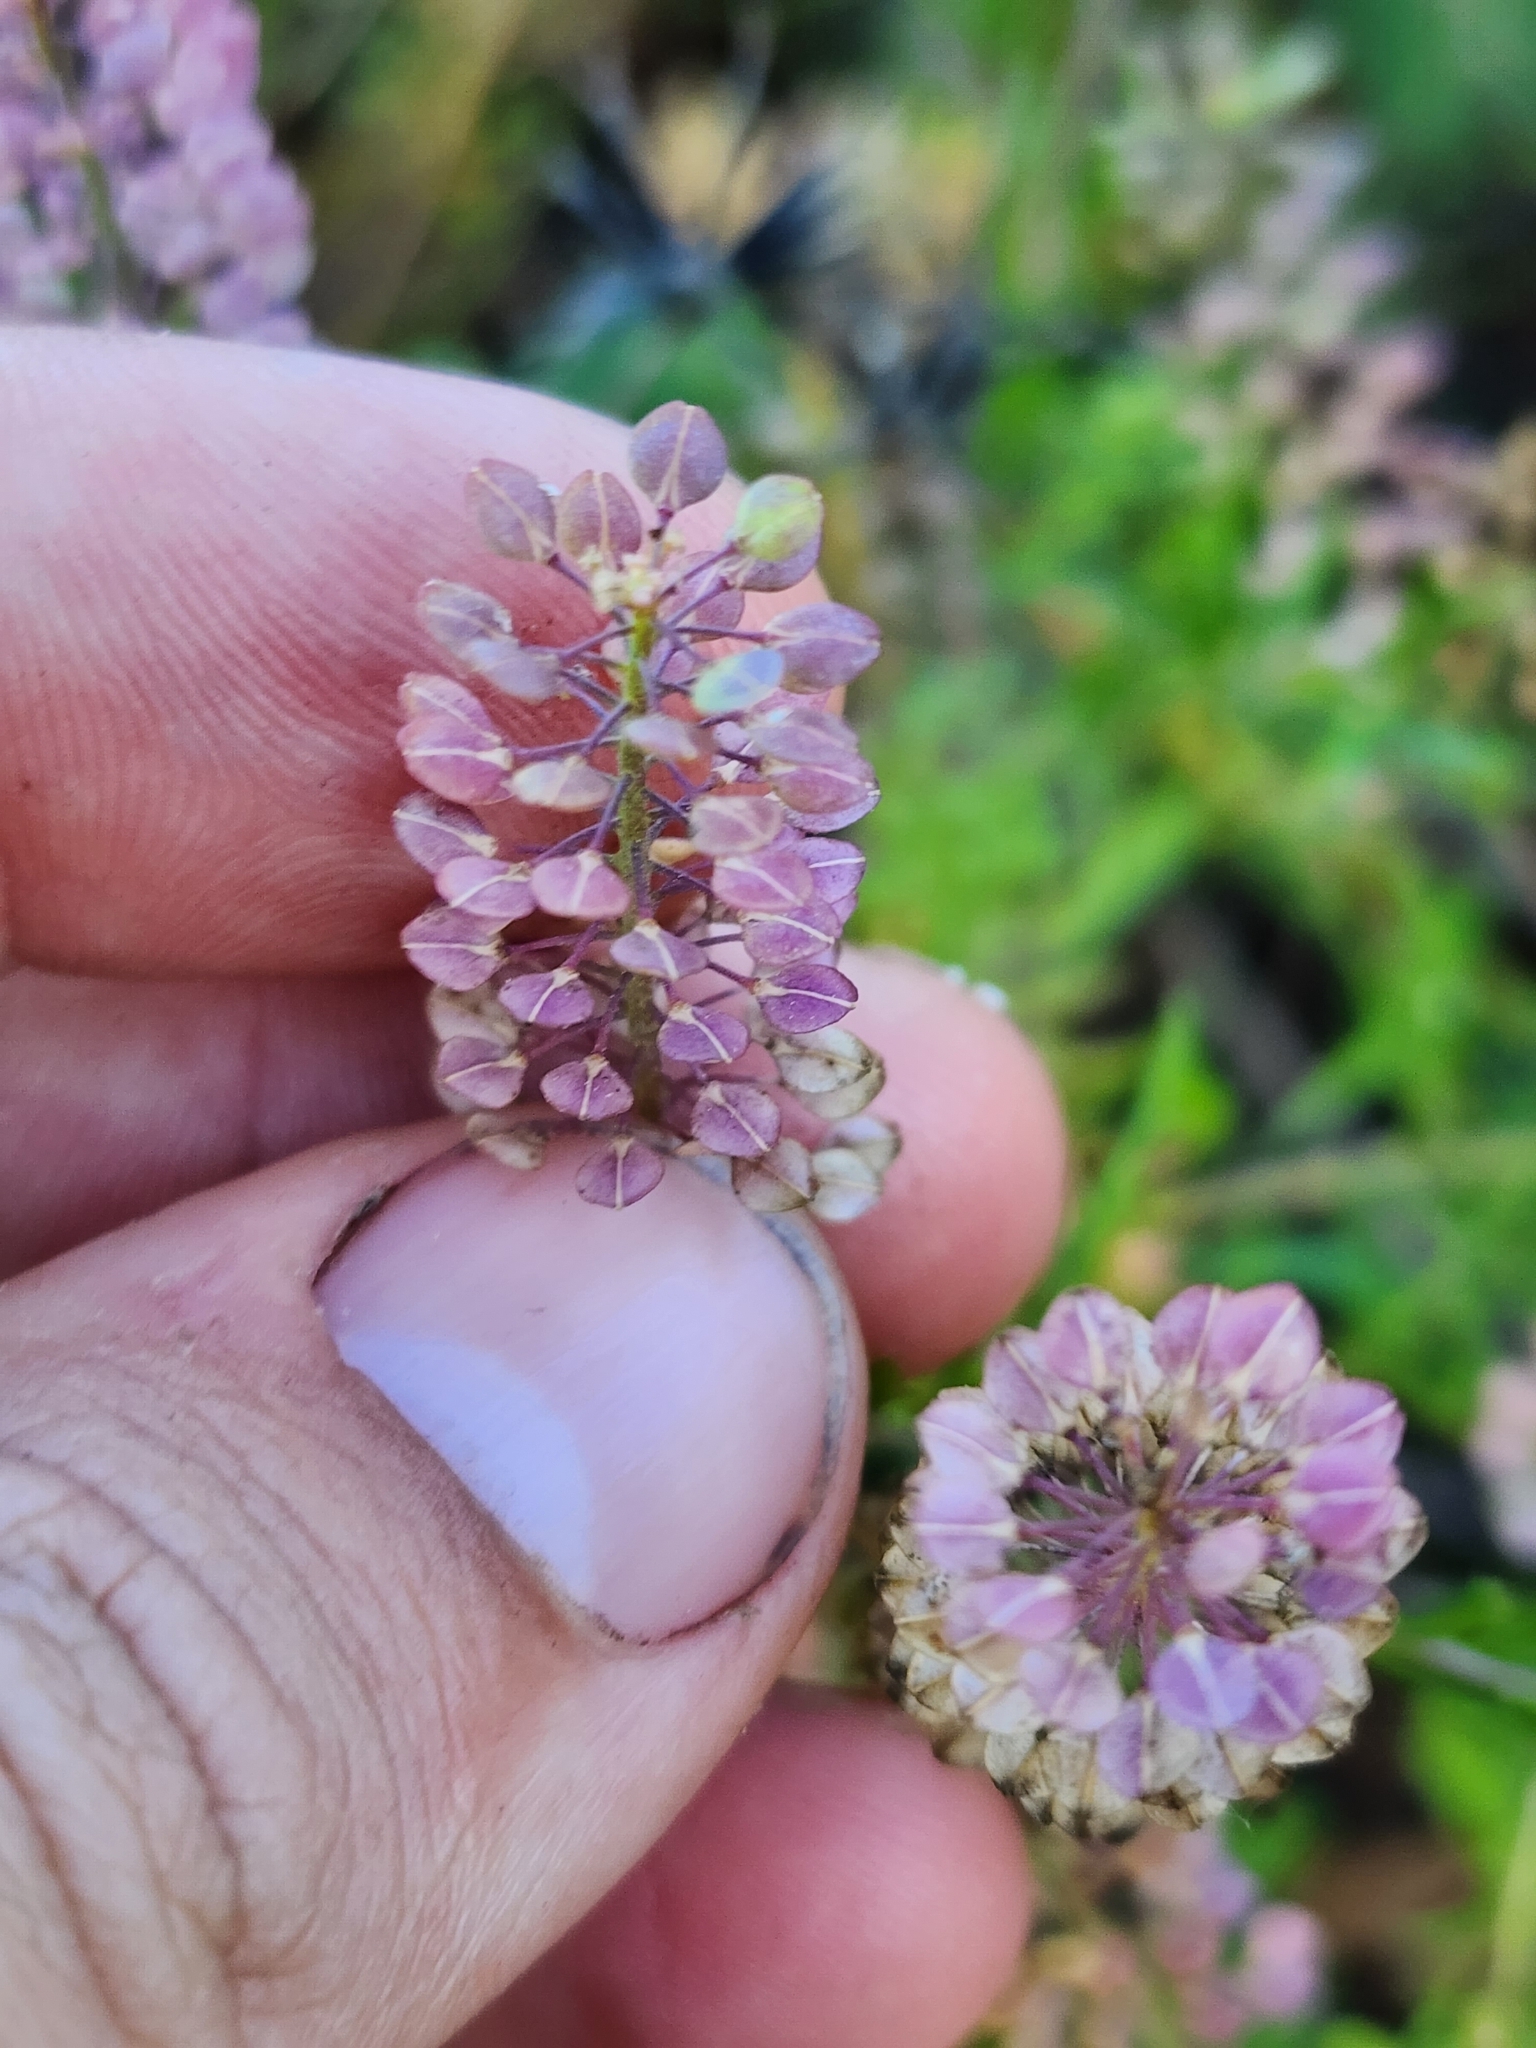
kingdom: Plantae
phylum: Tracheophyta
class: Magnoliopsida
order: Brassicales
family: Brassicaceae
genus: Lepidium
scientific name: Lepidium virginicum
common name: Least pepperwort
